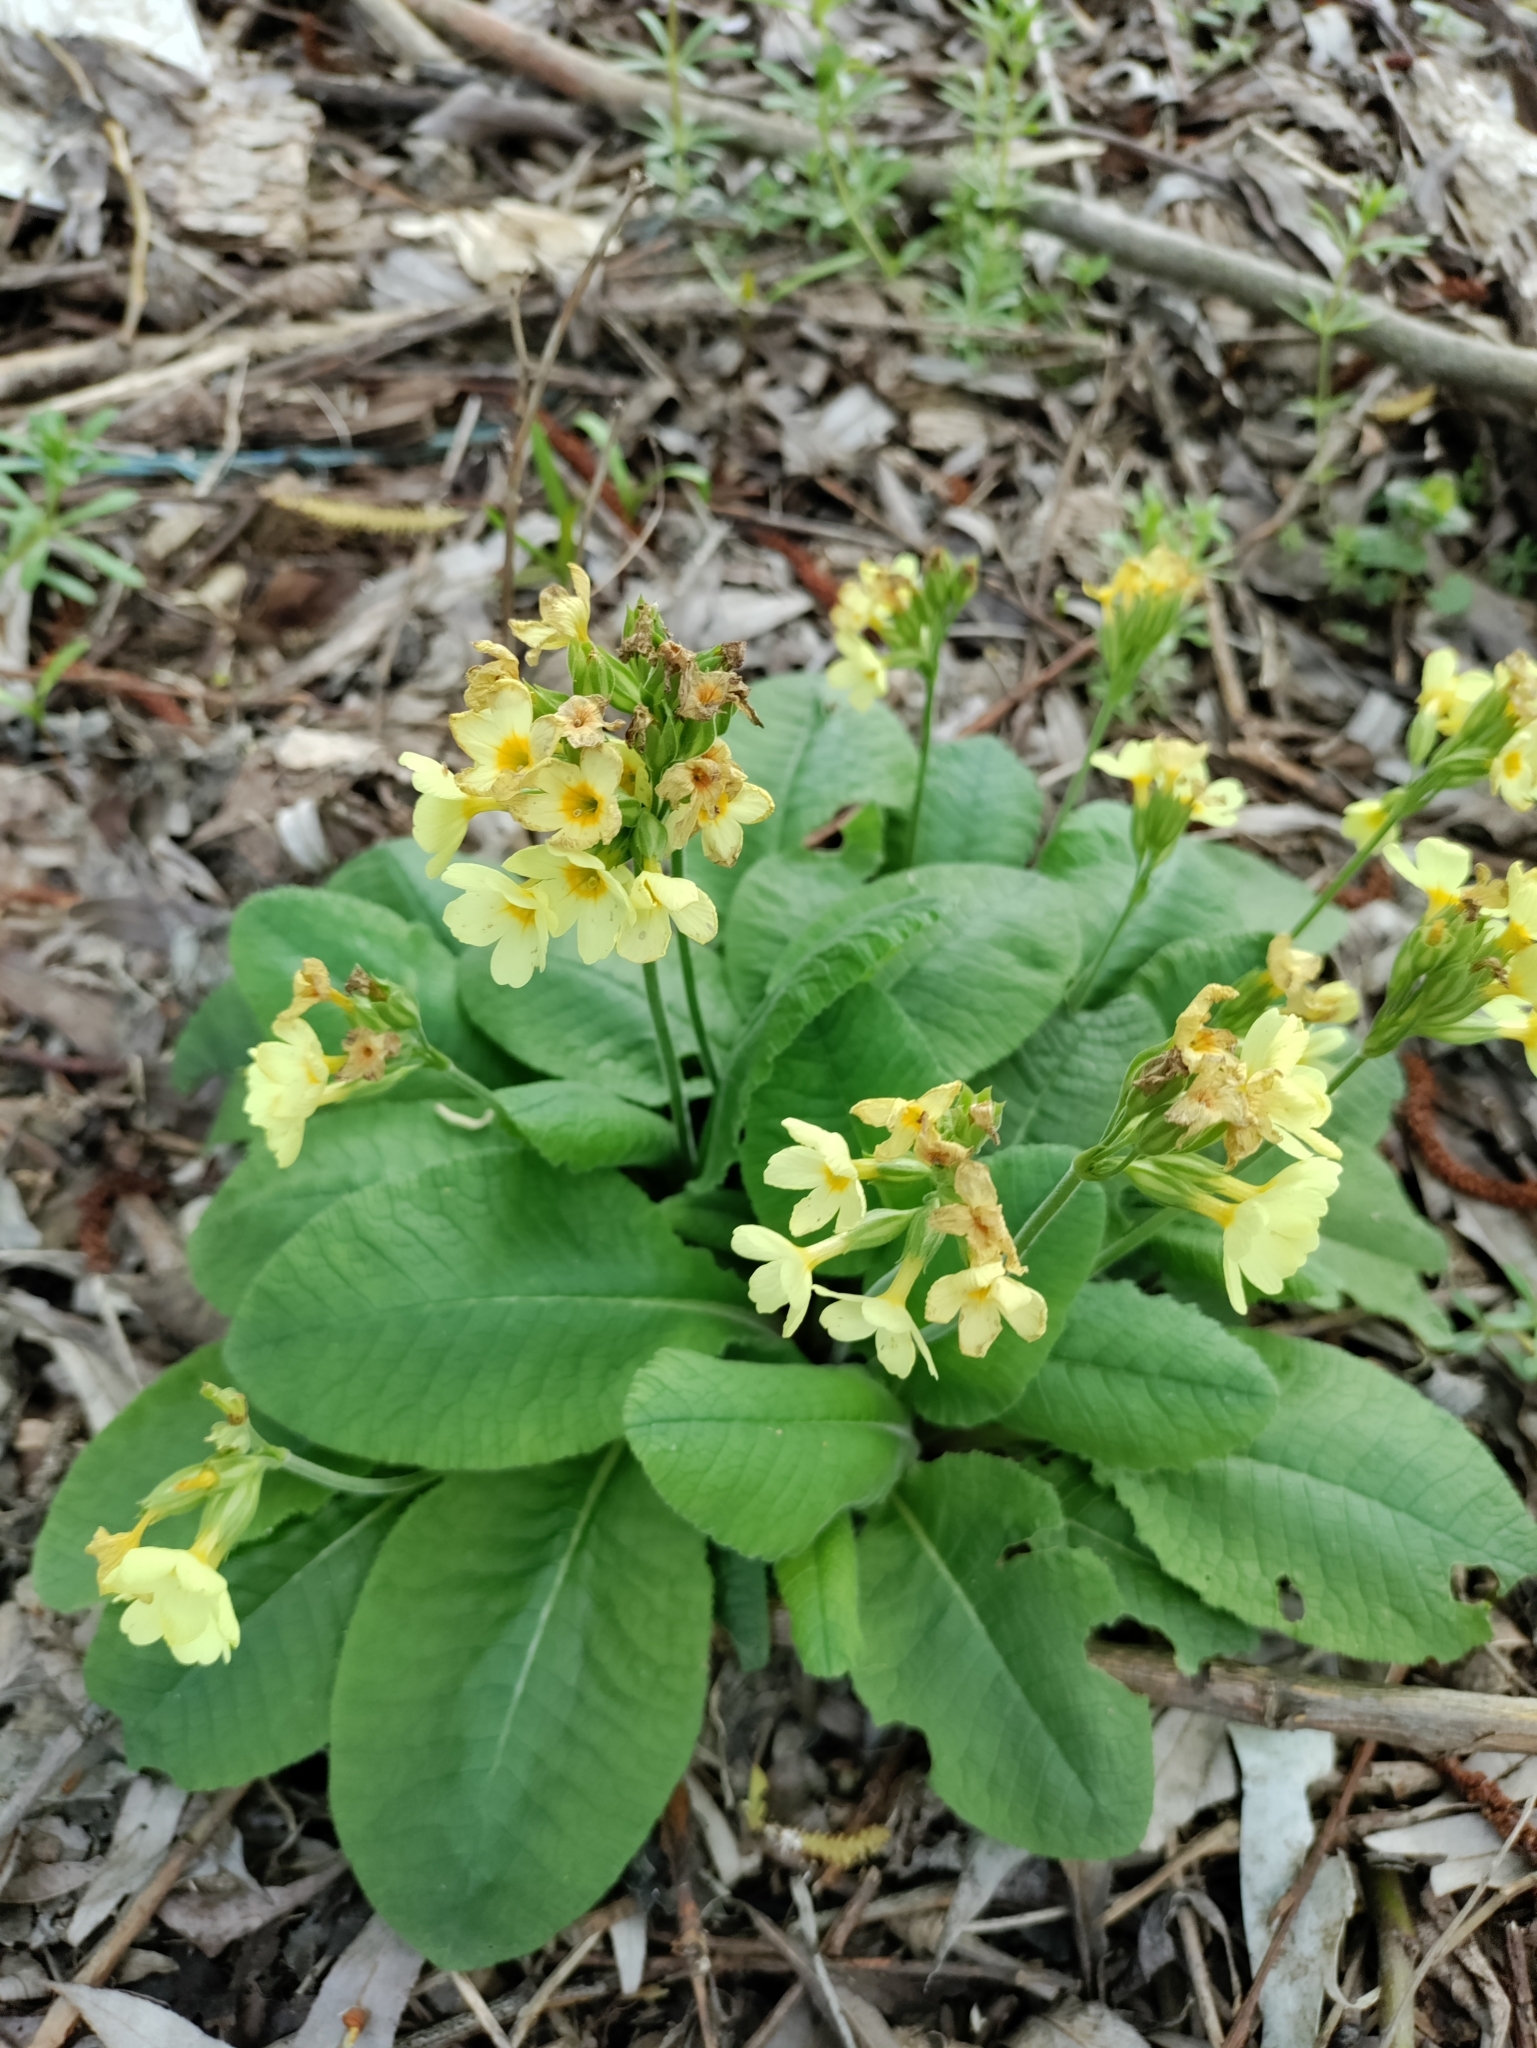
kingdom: Plantae
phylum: Tracheophyta
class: Magnoliopsida
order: Ericales
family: Primulaceae
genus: Primula
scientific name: Primula elatior
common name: Oxlip
